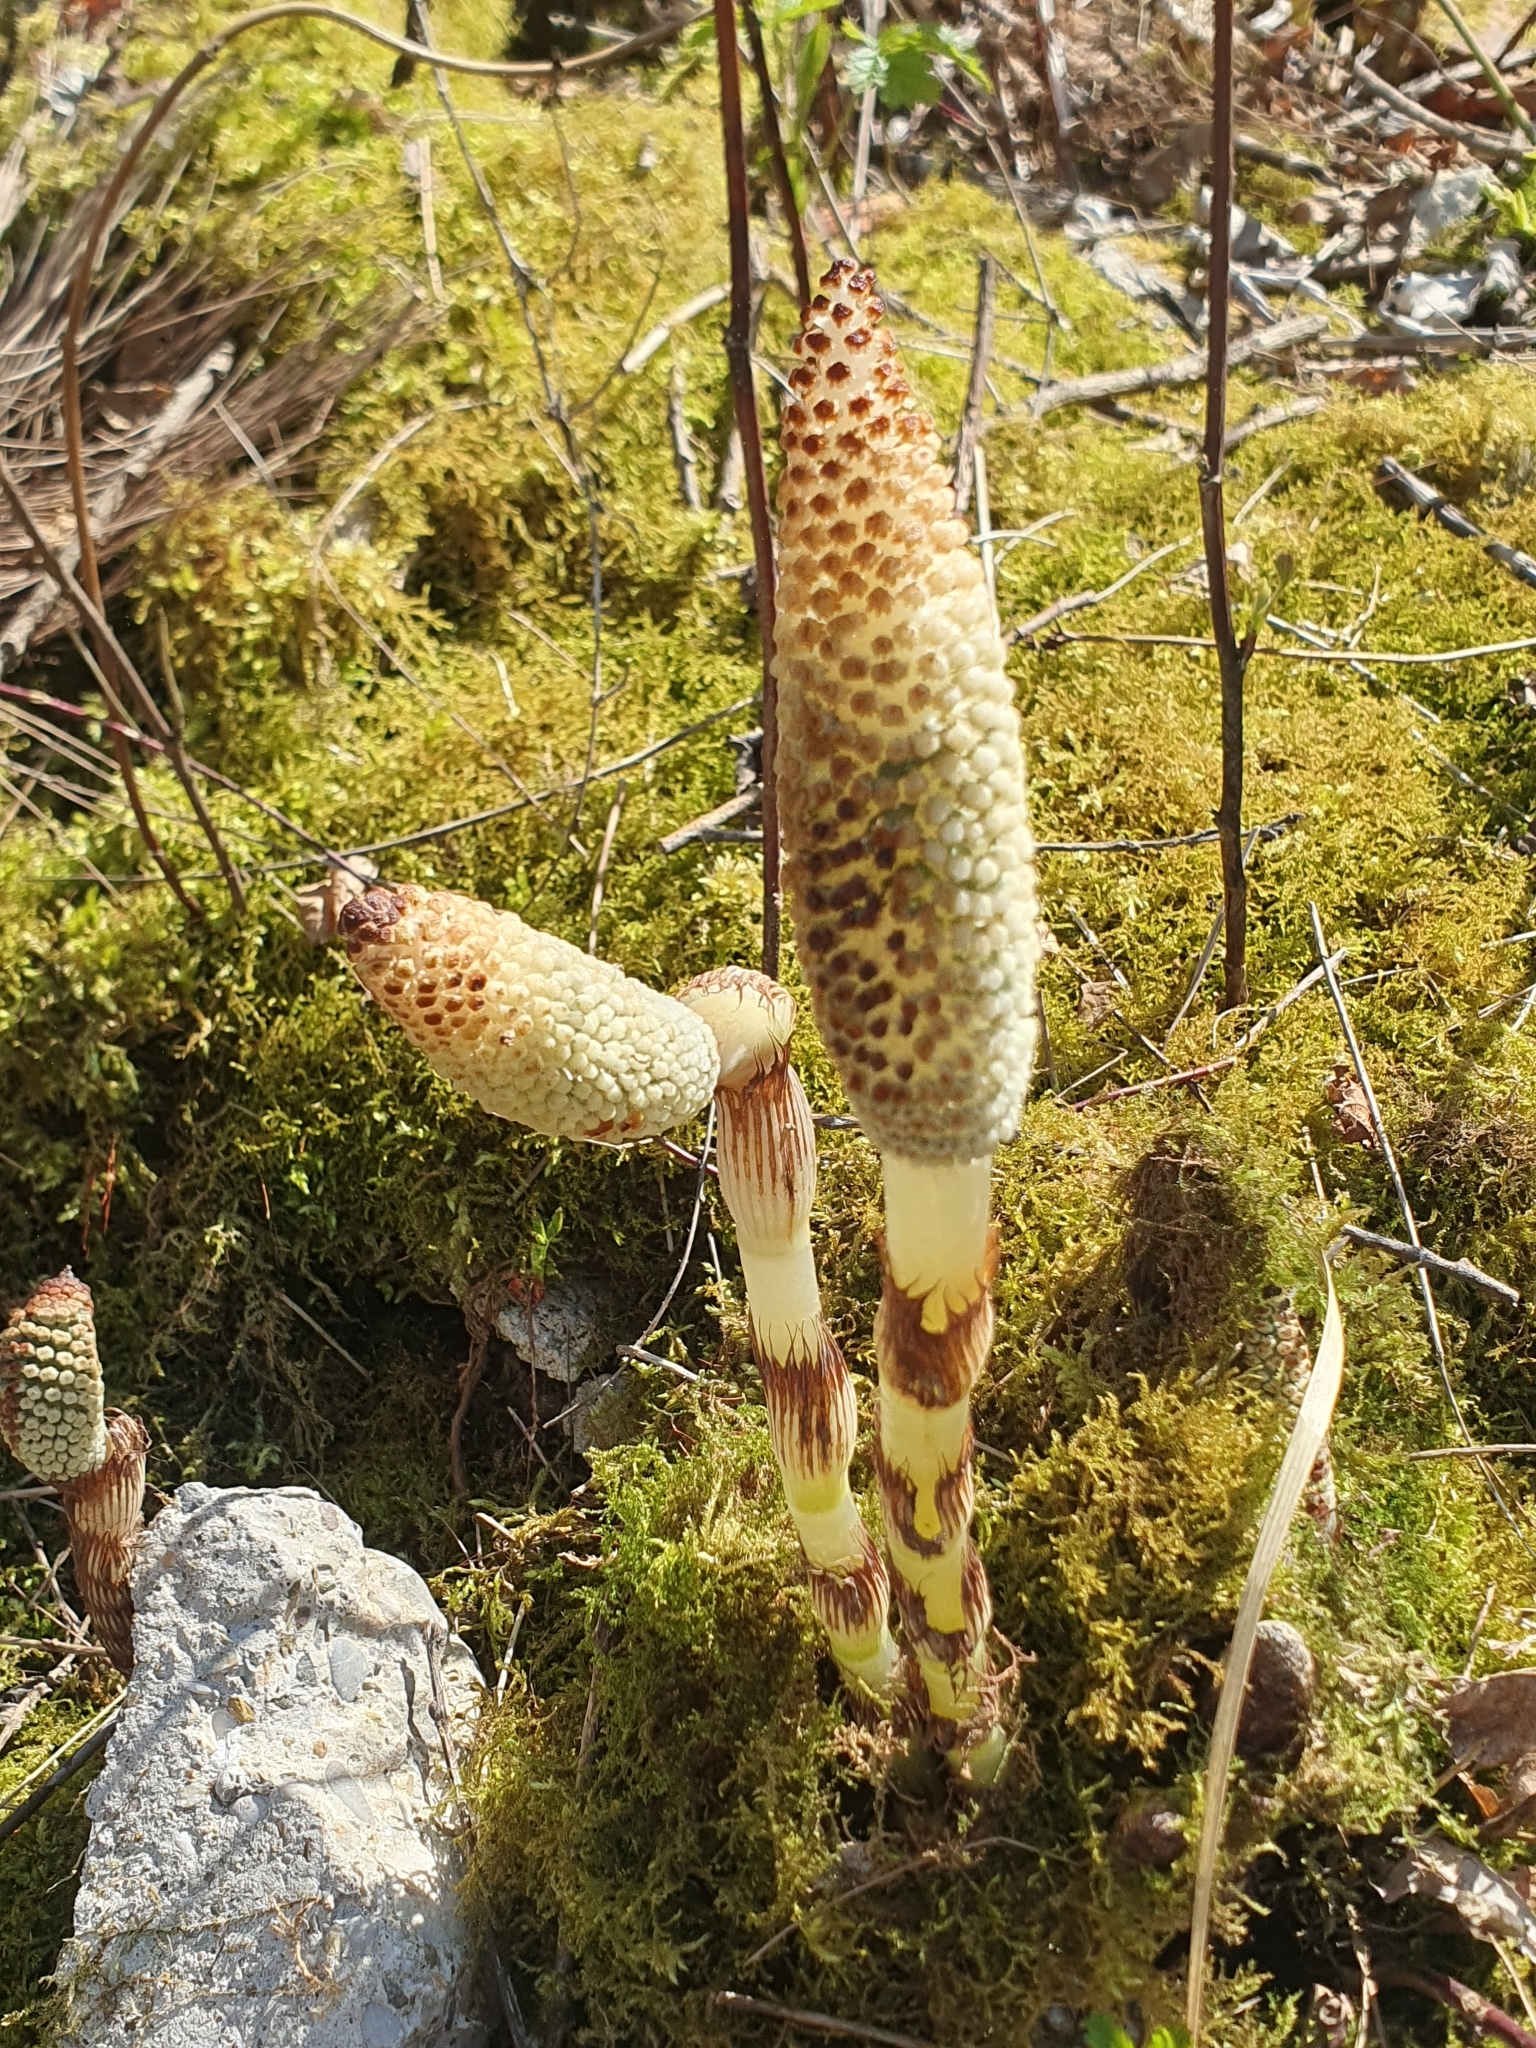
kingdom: Plantae
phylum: Tracheophyta
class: Polypodiopsida
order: Equisetales
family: Equisetaceae
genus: Equisetum
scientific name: Equisetum telmateia
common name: Great horsetail
